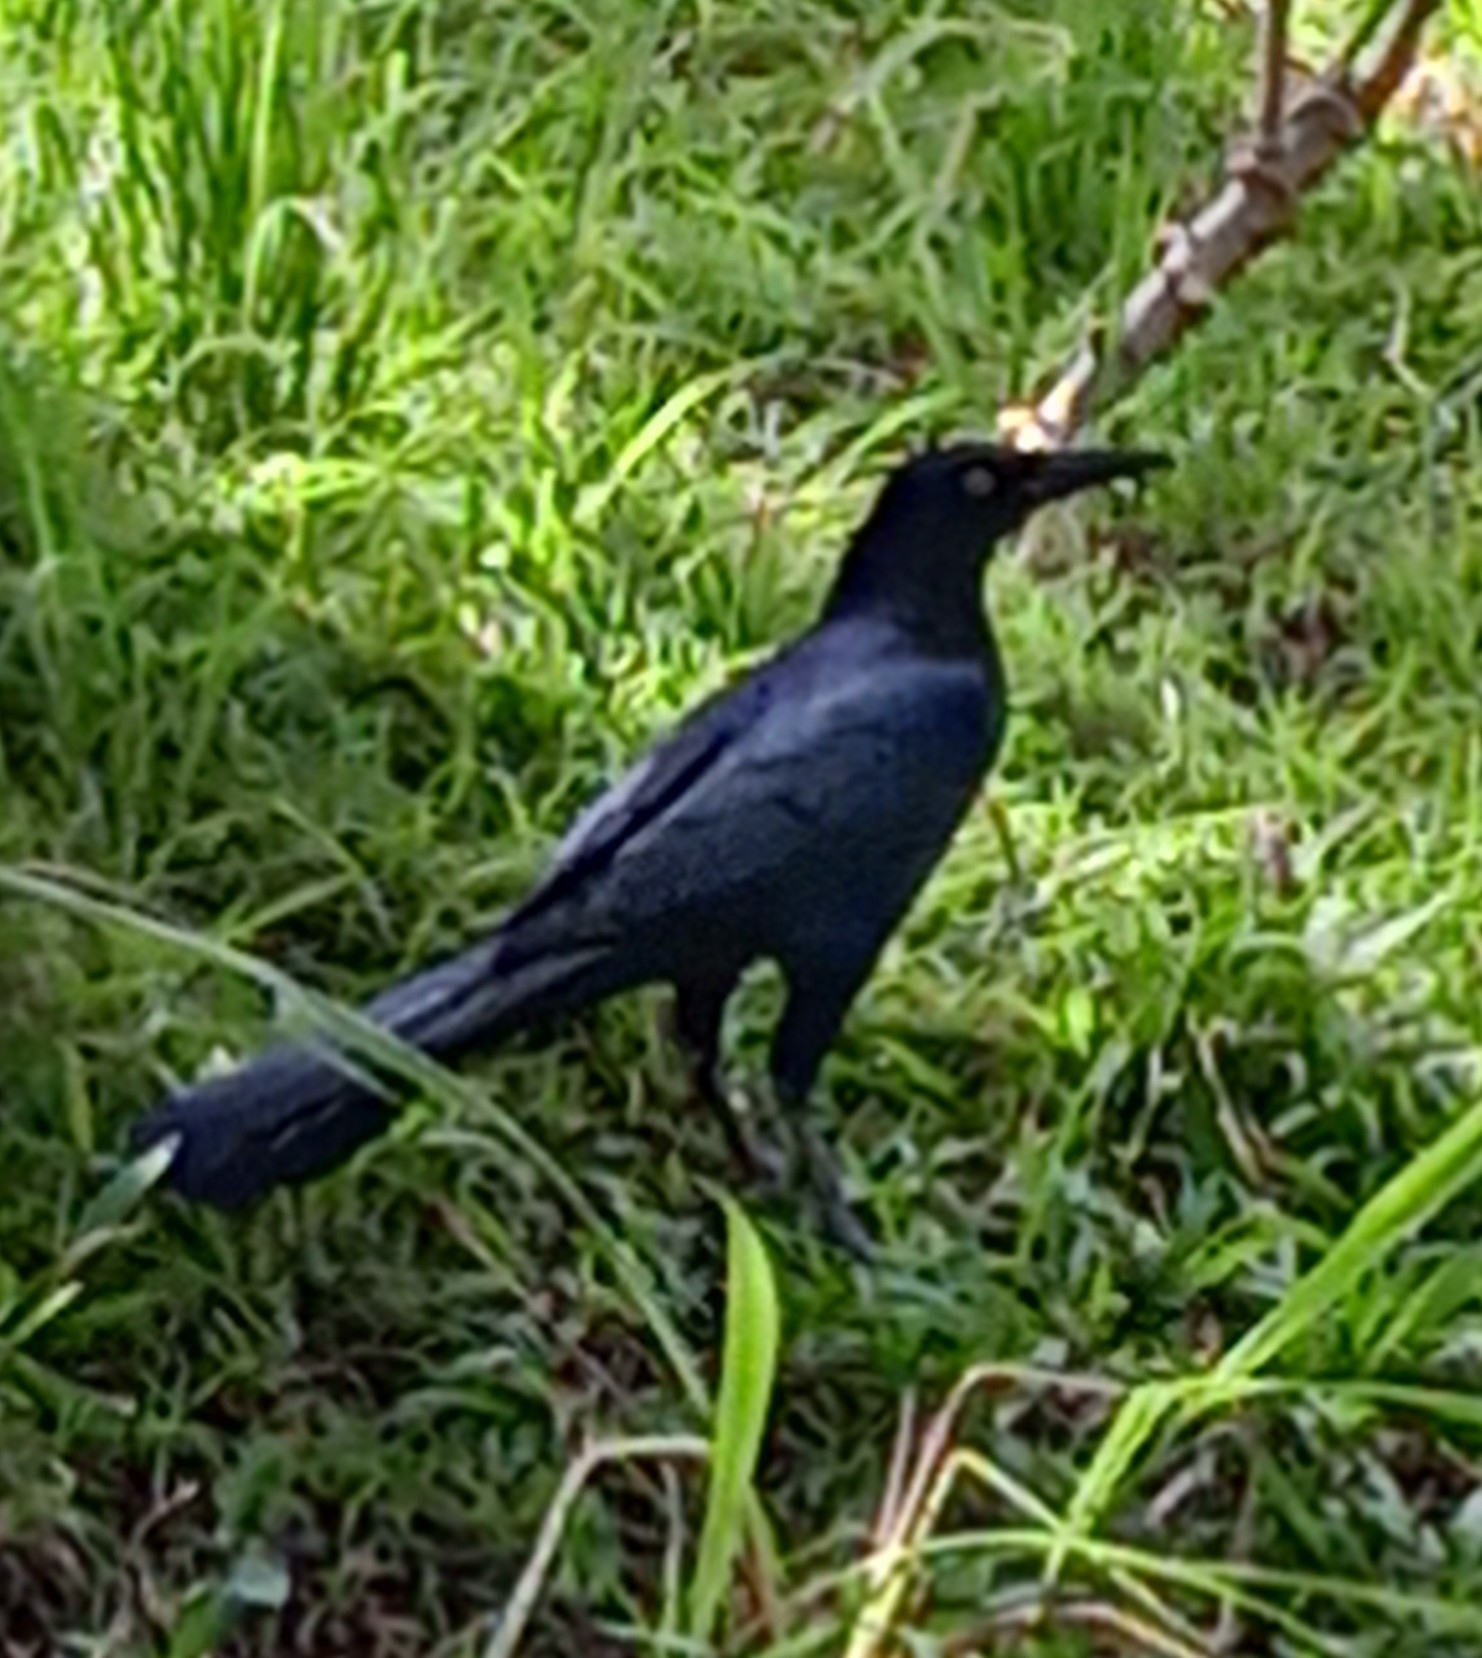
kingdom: Animalia
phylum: Chordata
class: Aves
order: Passeriformes
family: Icteridae
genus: Quiscalus
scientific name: Quiscalus mexicanus
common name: Great-tailed grackle
